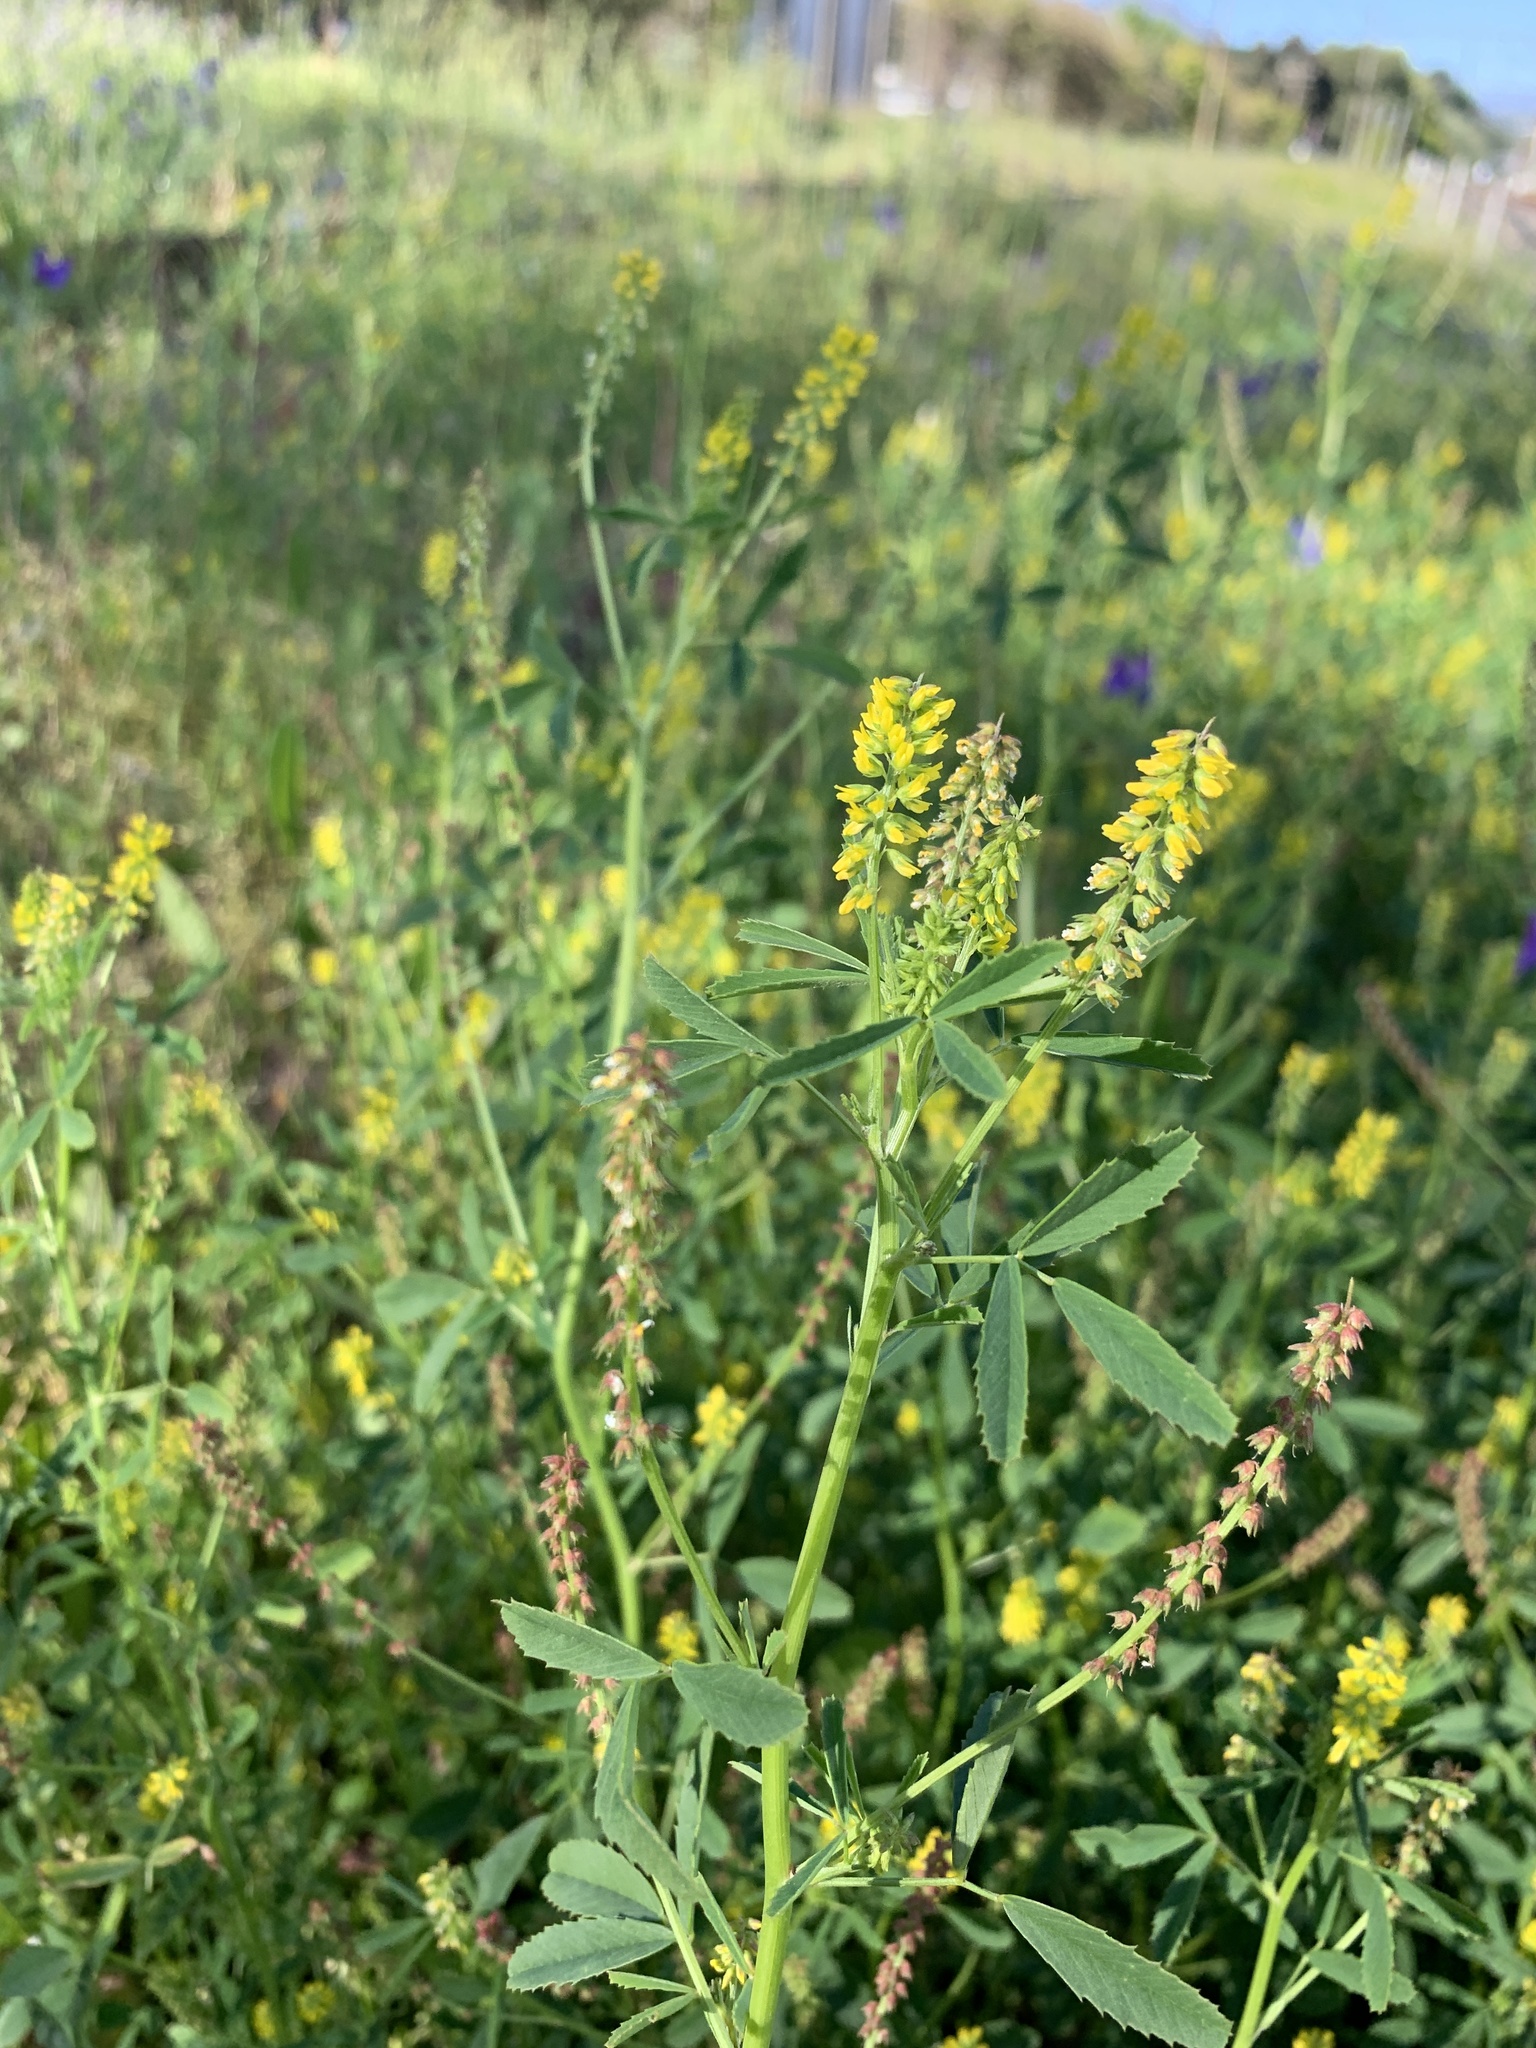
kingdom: Plantae
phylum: Tracheophyta
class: Magnoliopsida
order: Fabales
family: Fabaceae
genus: Melilotus
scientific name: Melilotus indicus
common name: Small melilot
